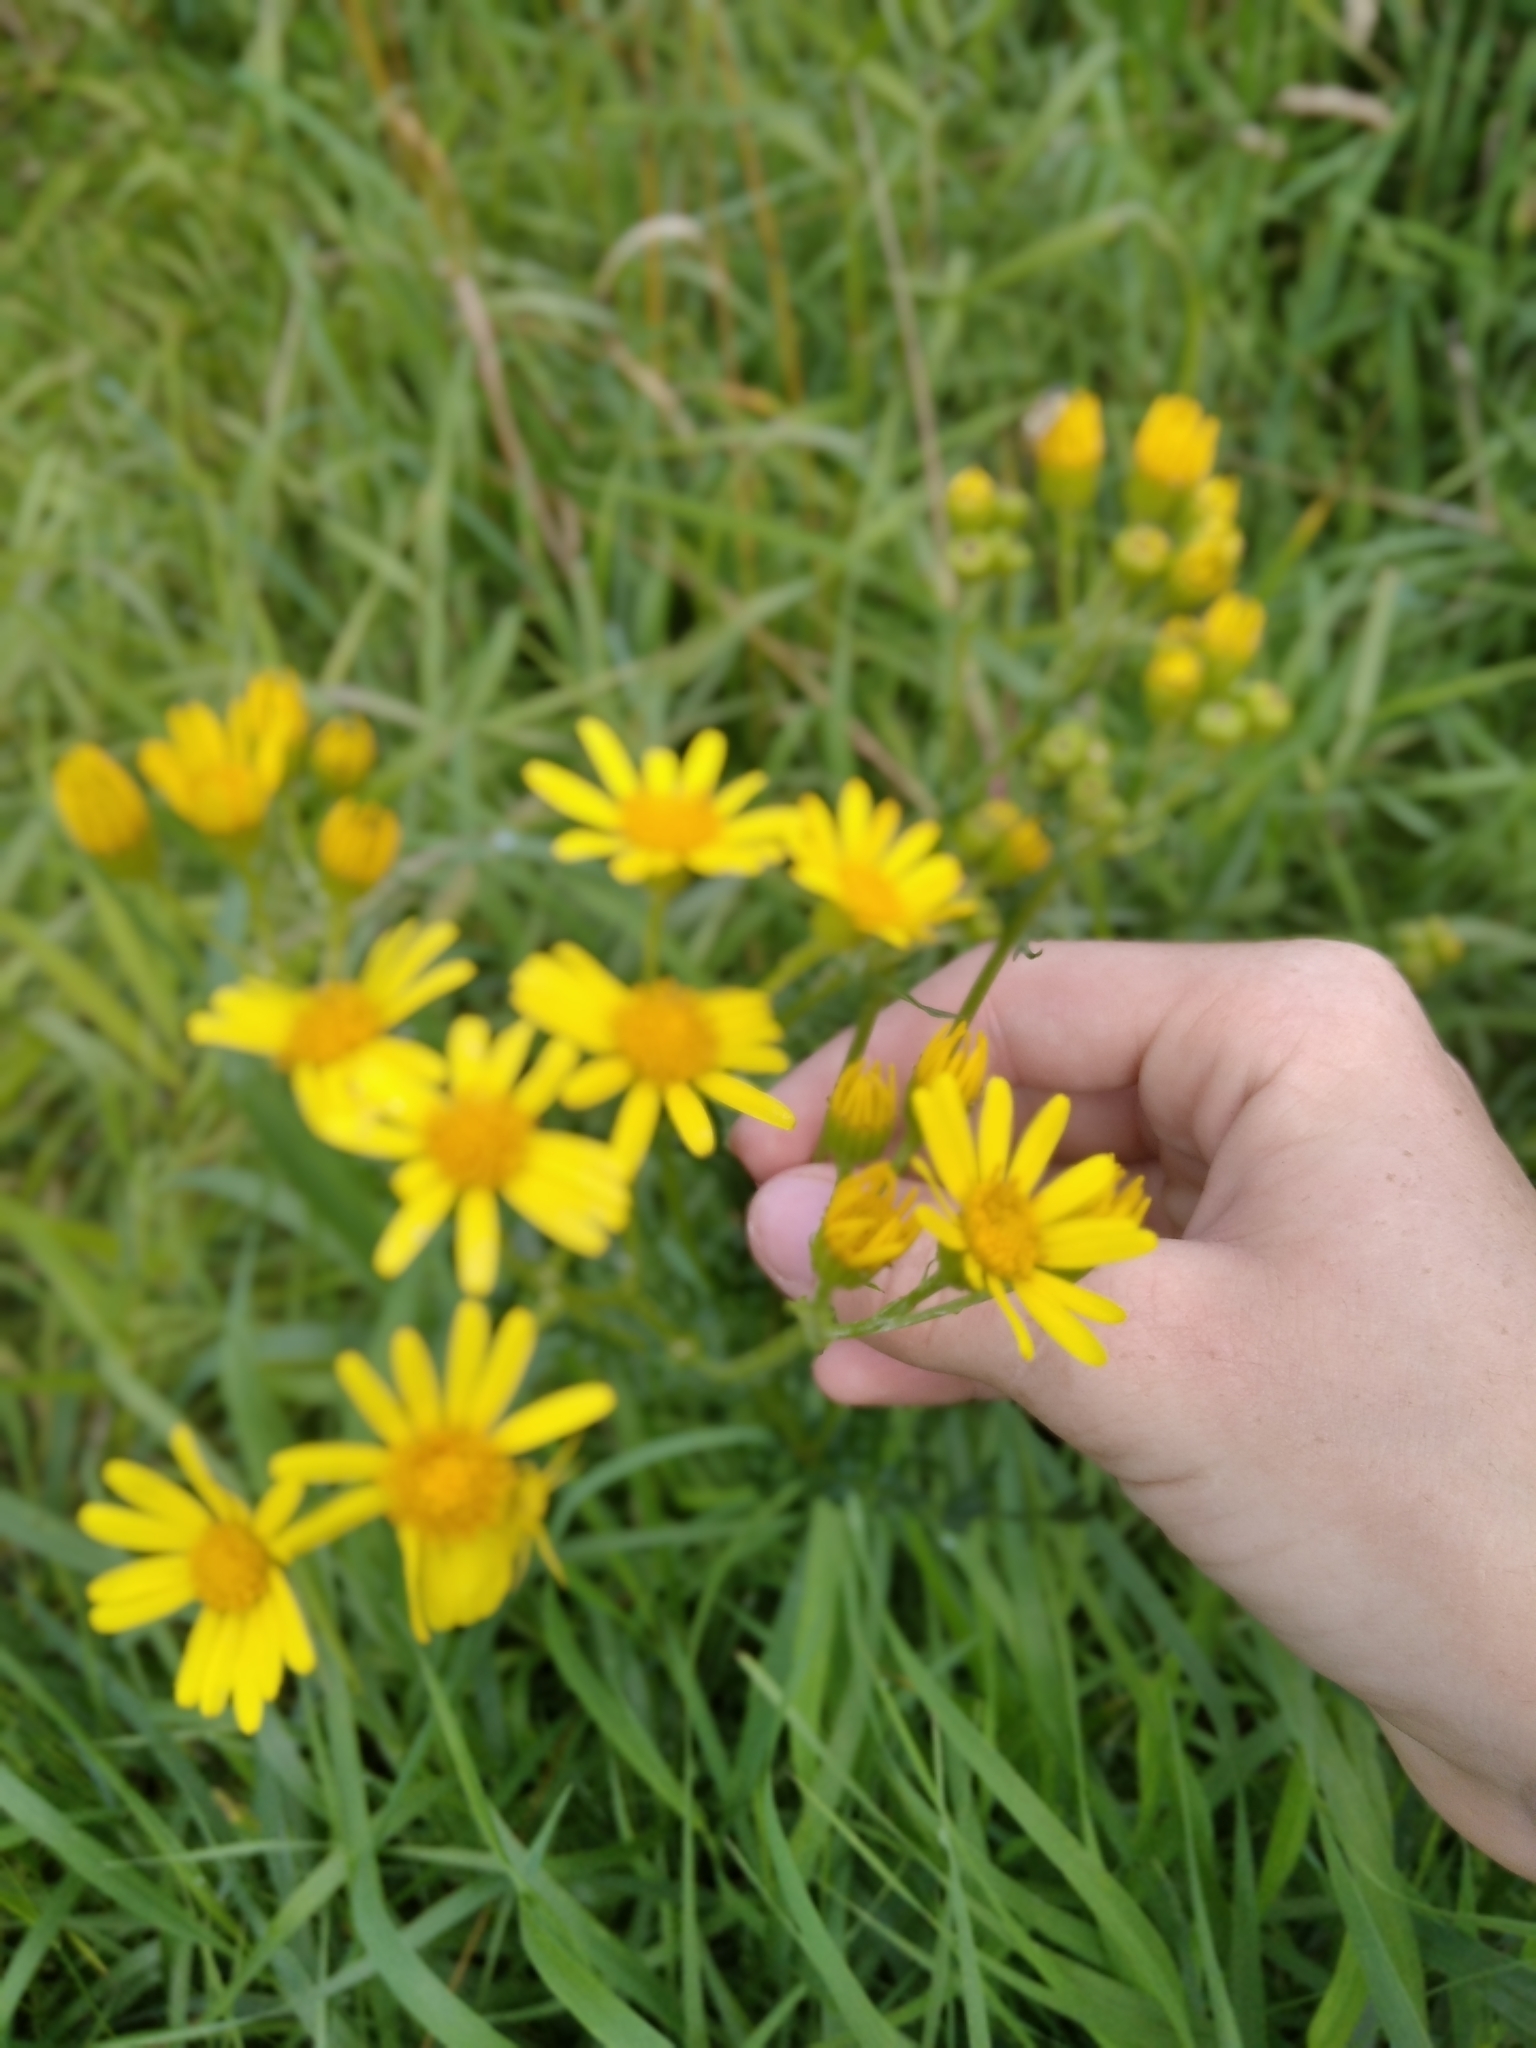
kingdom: Plantae
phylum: Tracheophyta
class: Magnoliopsida
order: Asterales
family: Asteraceae
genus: Jacobaea
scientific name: Jacobaea vulgaris
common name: Stinking willie
